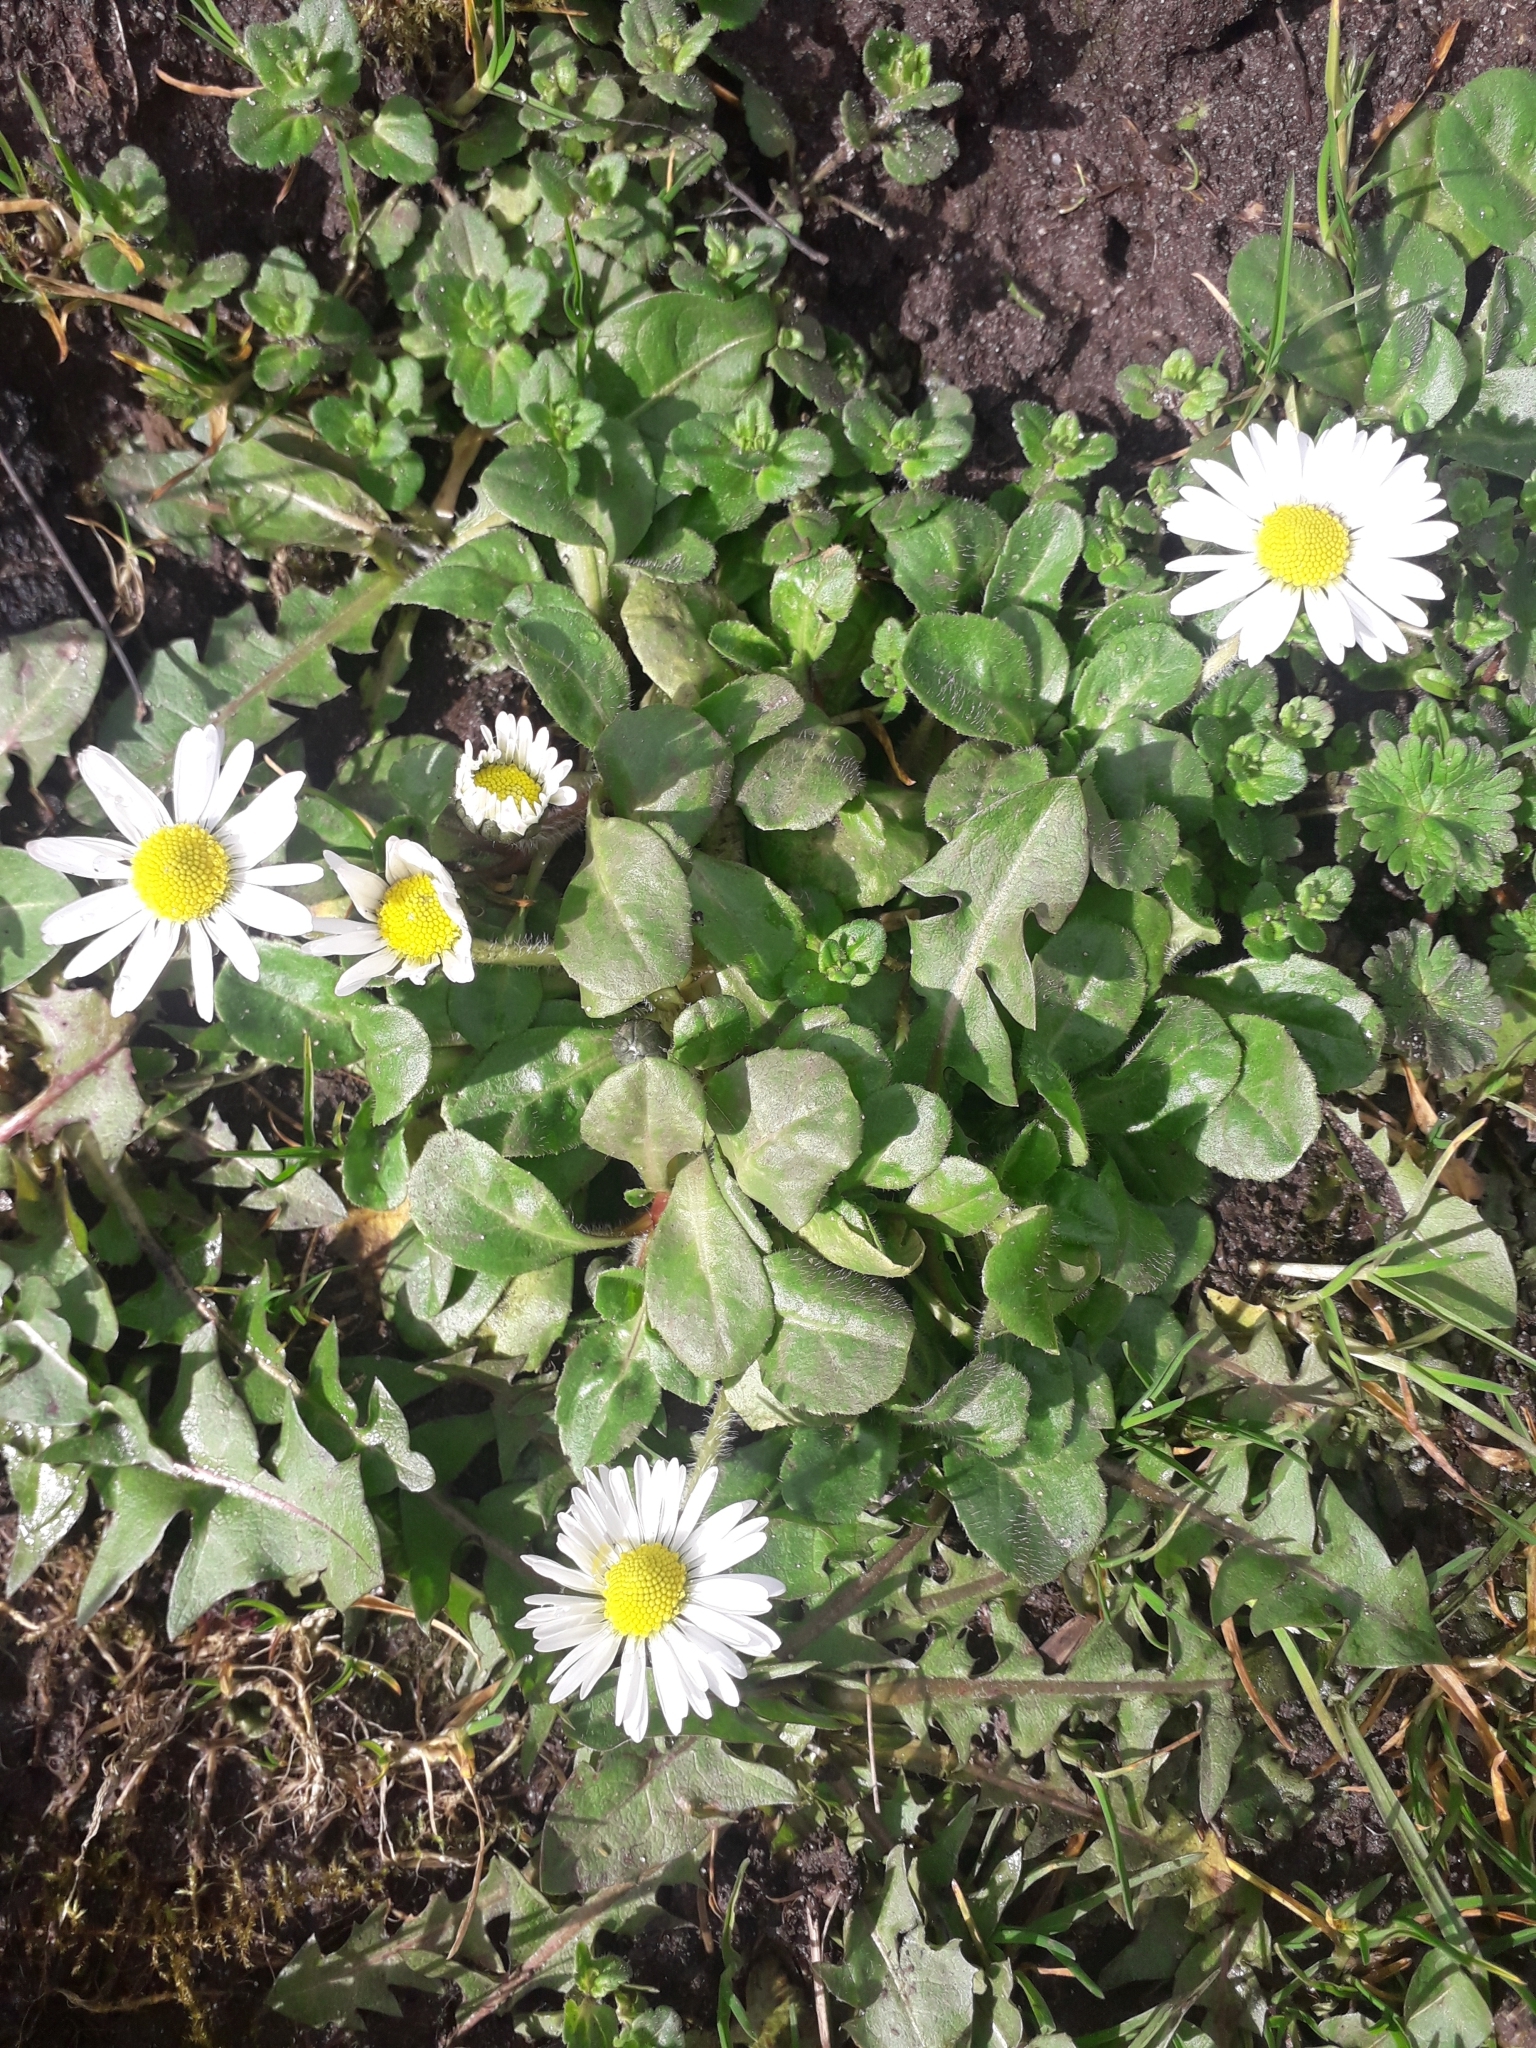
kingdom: Plantae
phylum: Tracheophyta
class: Magnoliopsida
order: Asterales
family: Asteraceae
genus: Bellis
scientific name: Bellis perennis
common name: Lawndaisy
